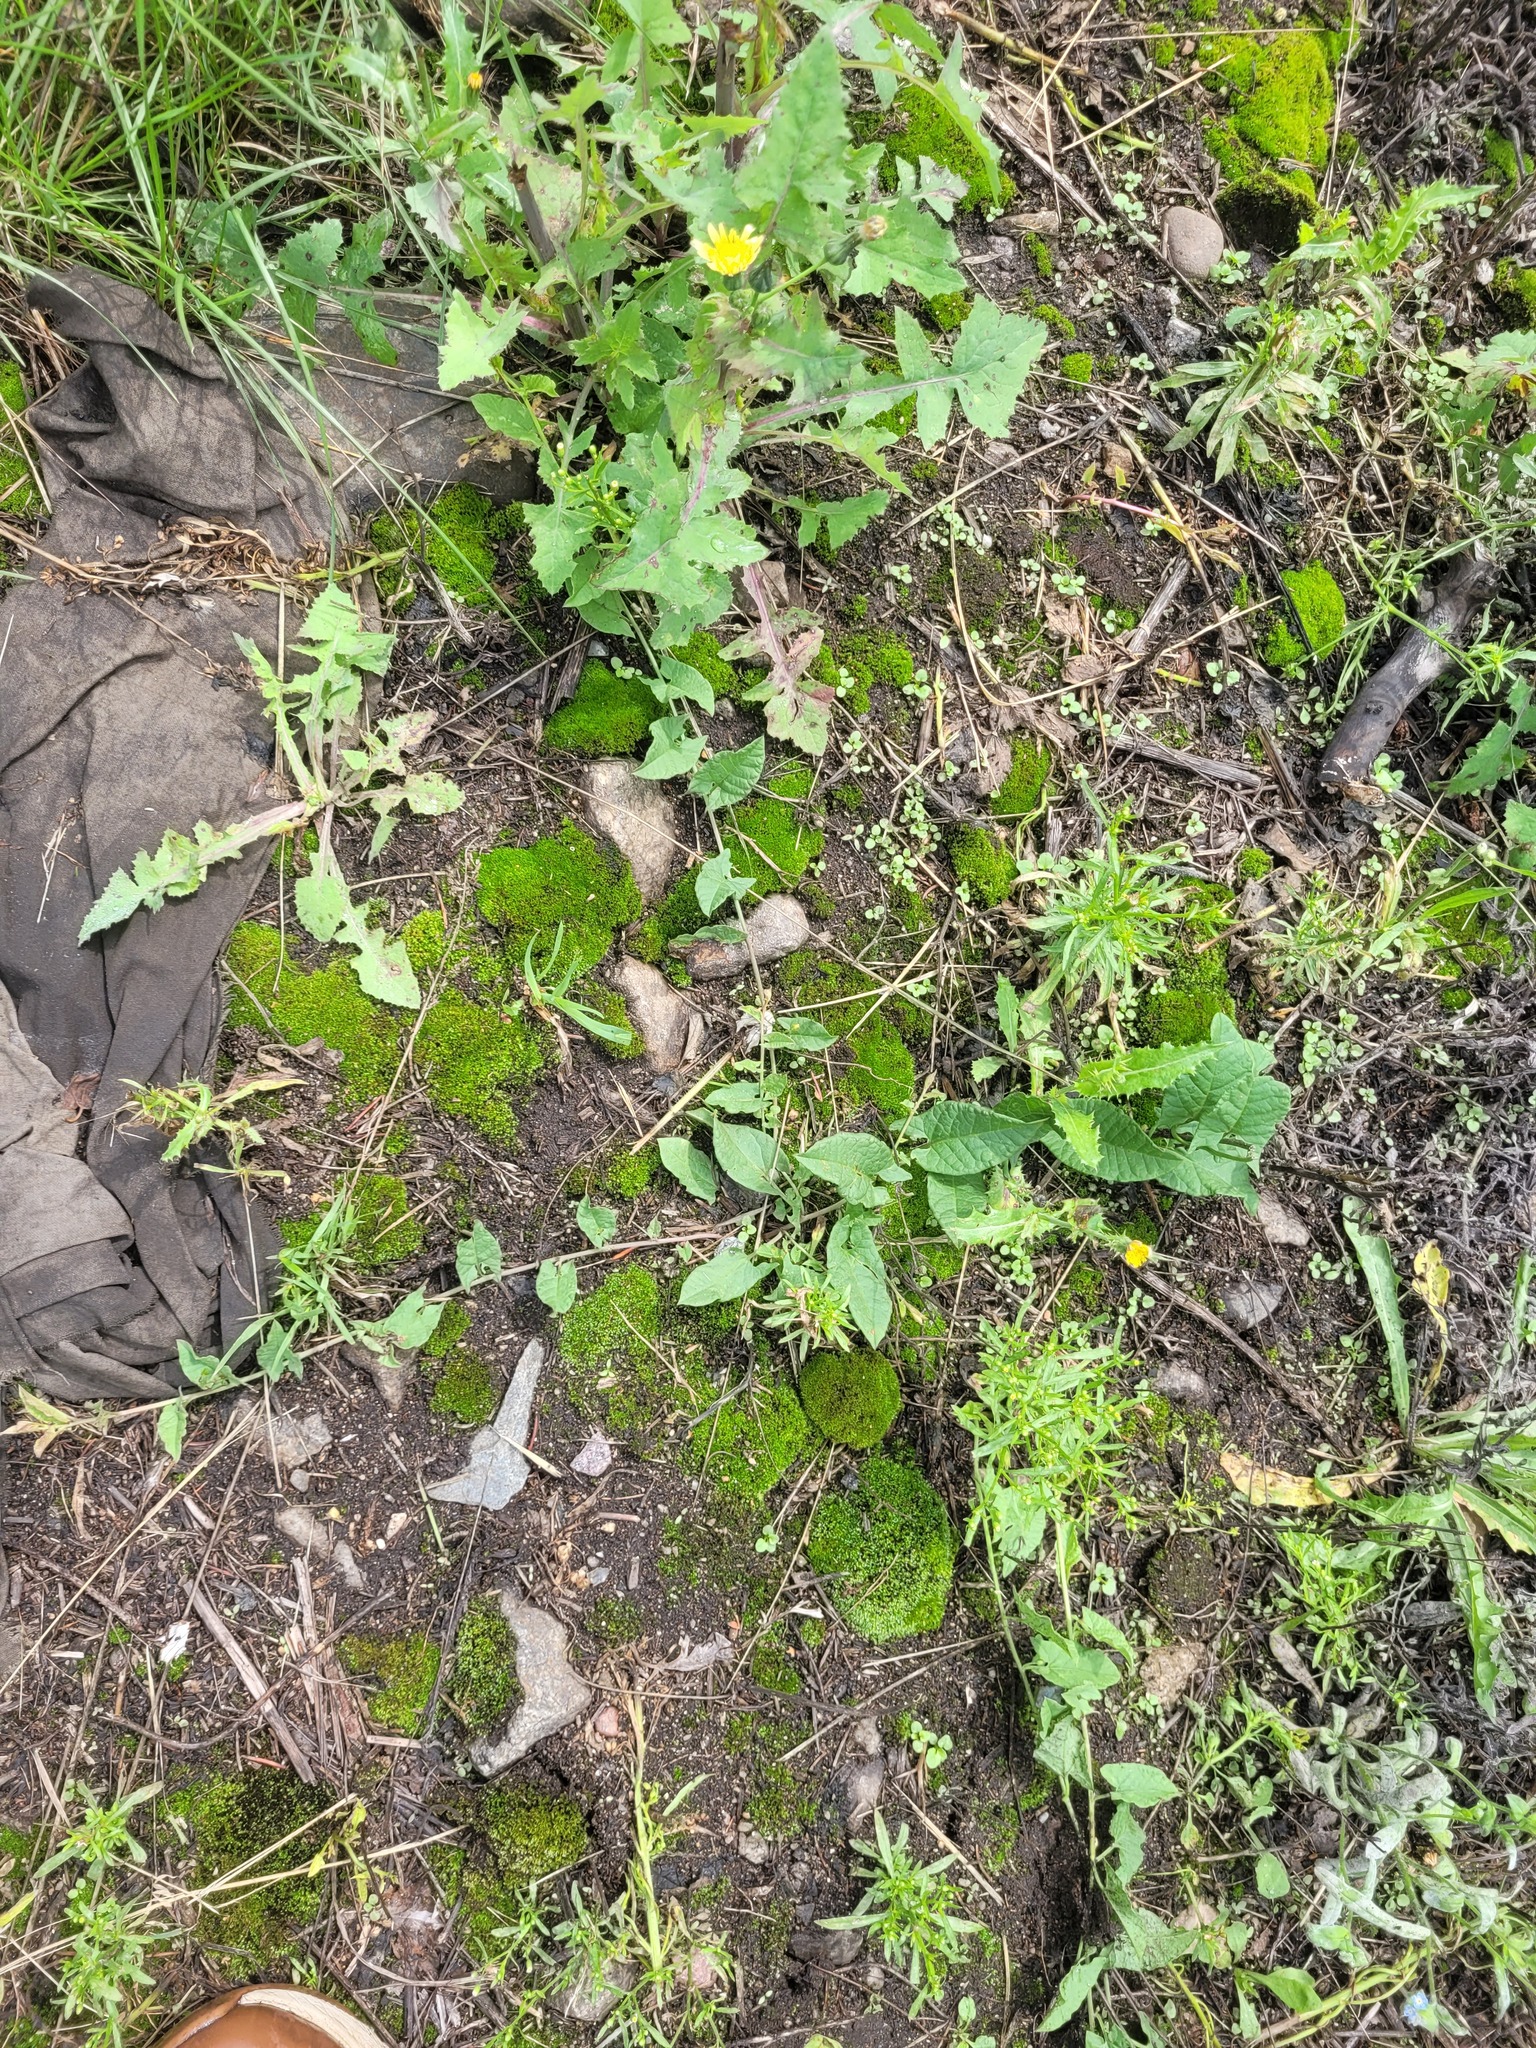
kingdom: Plantae
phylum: Tracheophyta
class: Magnoliopsida
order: Solanales
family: Convolvulaceae
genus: Convolvulus
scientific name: Convolvulus arvensis
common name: Field bindweed
